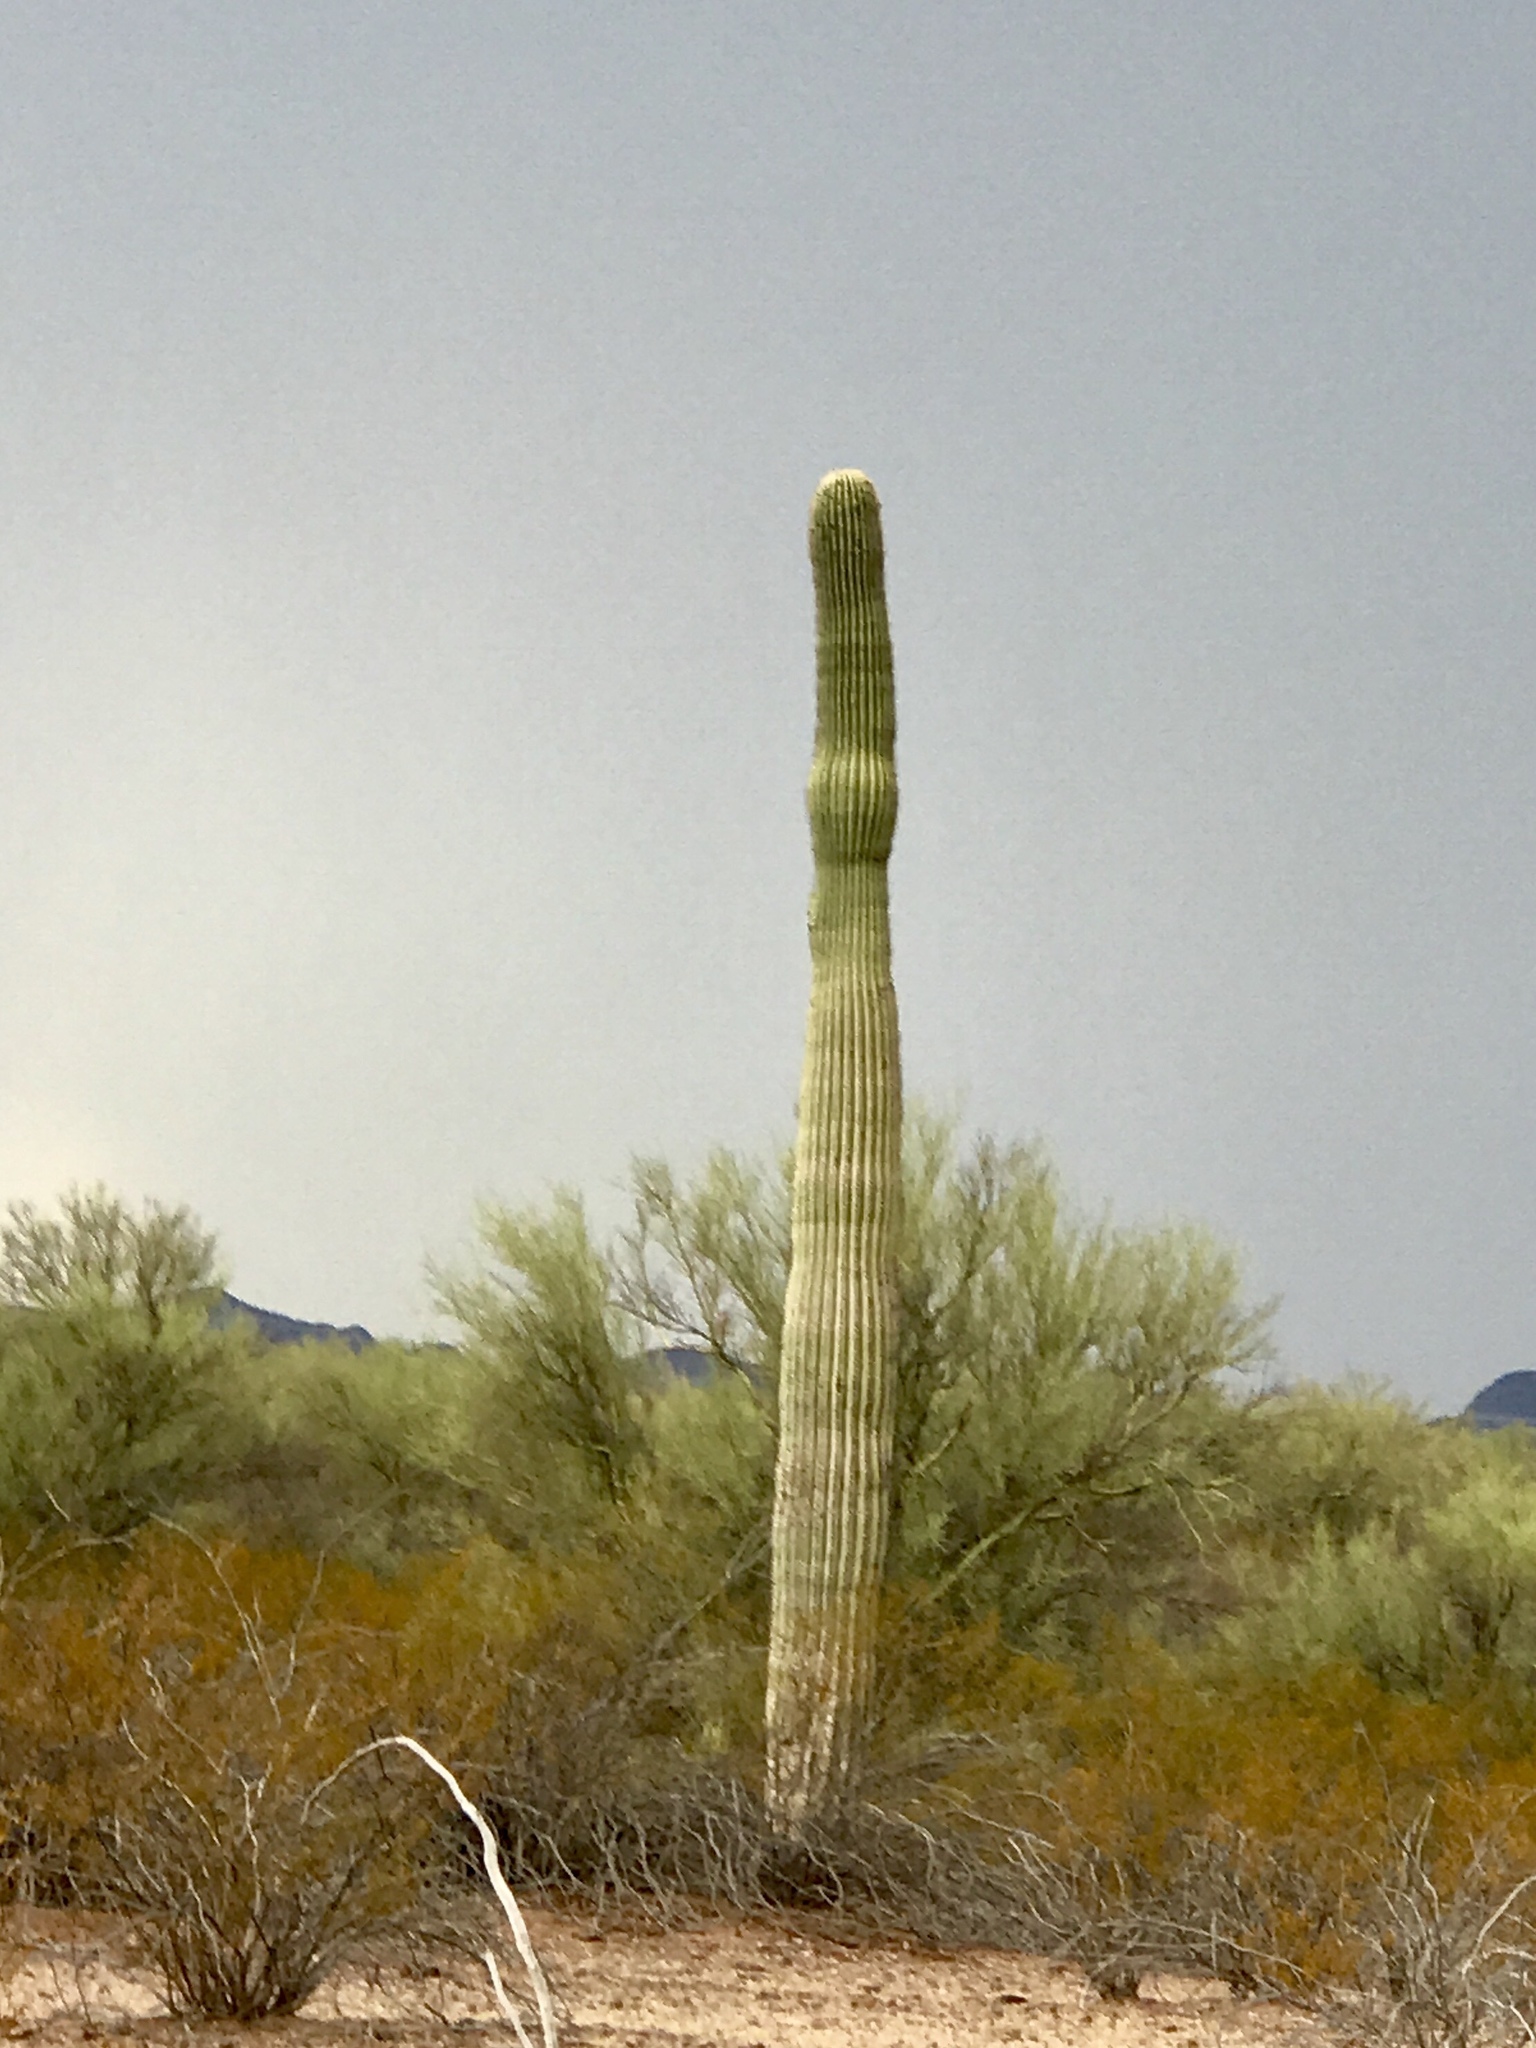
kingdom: Plantae
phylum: Tracheophyta
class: Magnoliopsida
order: Caryophyllales
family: Cactaceae
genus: Carnegiea
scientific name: Carnegiea gigantea
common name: Saguaro
